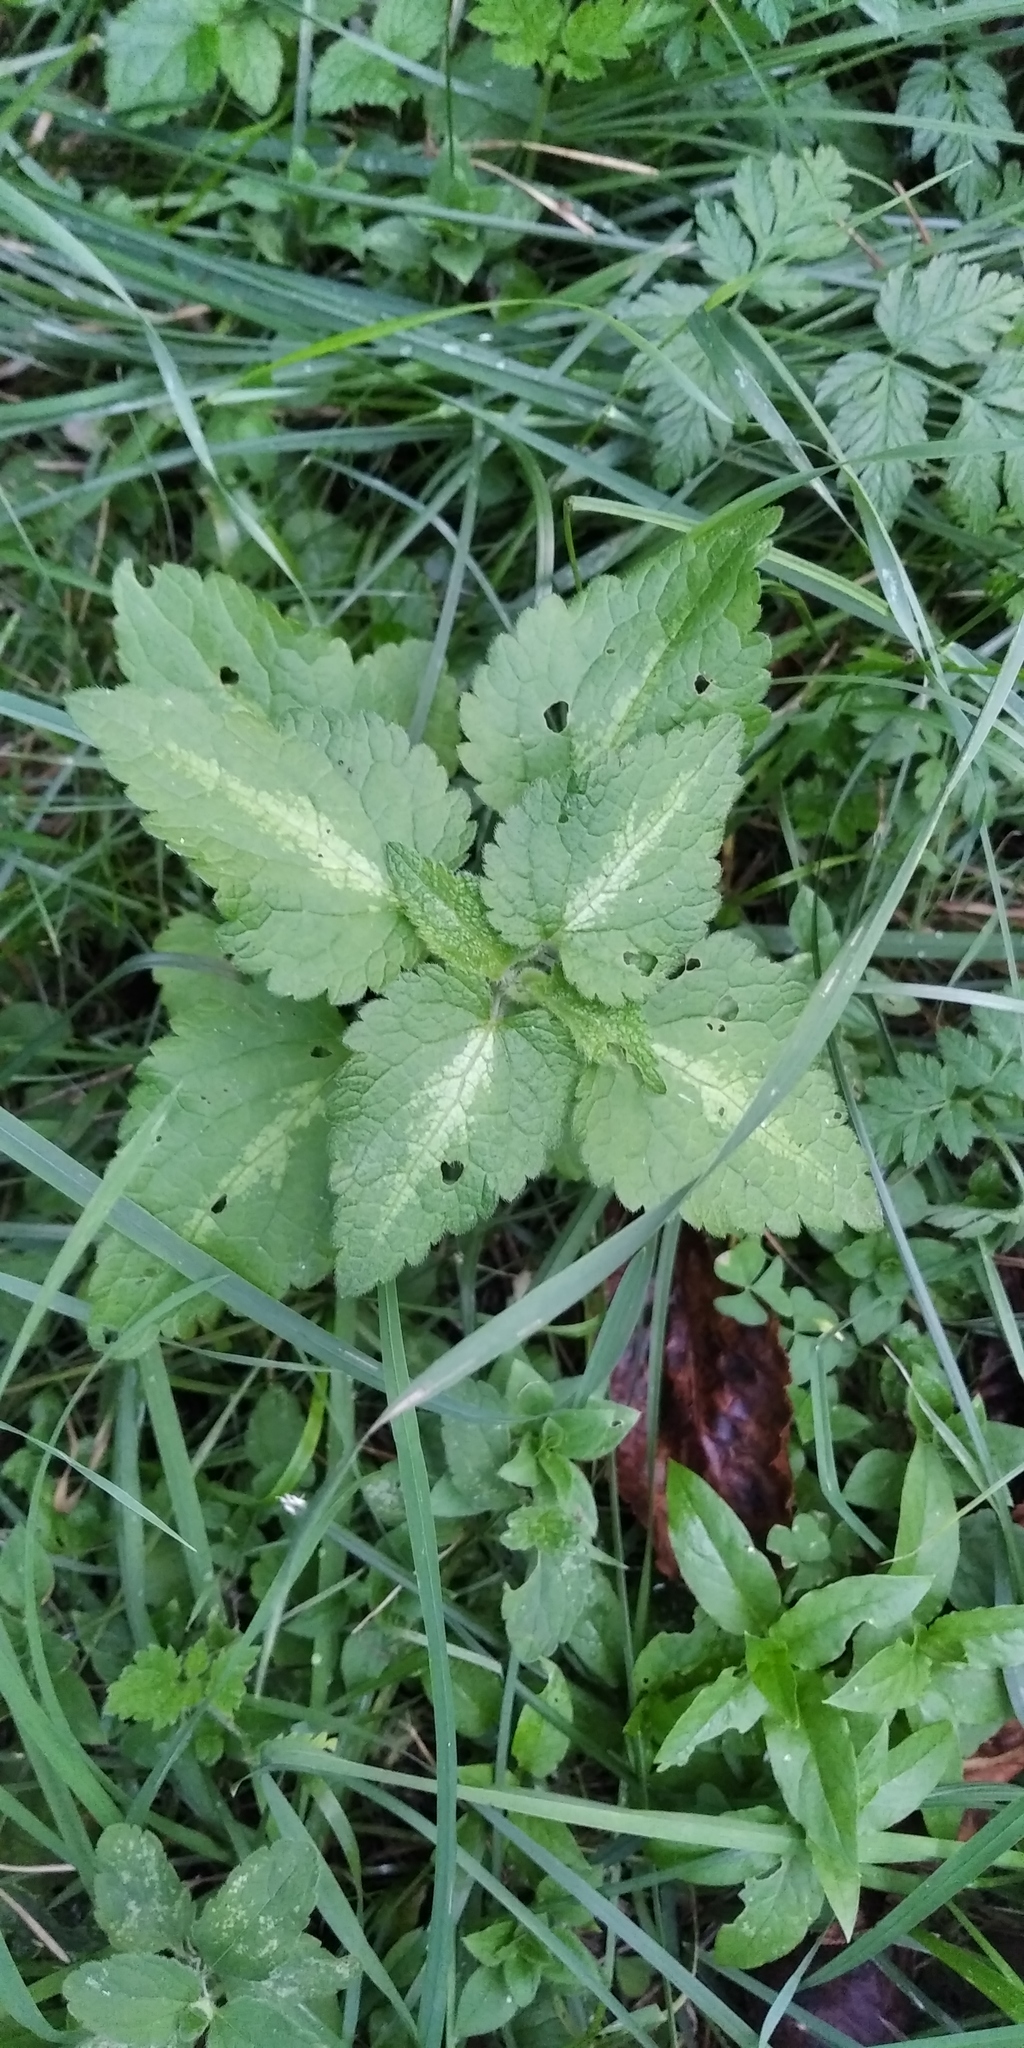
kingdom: Plantae
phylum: Tracheophyta
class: Magnoliopsida
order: Lamiales
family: Lamiaceae
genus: Lamium
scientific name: Lamium maculatum
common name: Spotted dead-nettle
